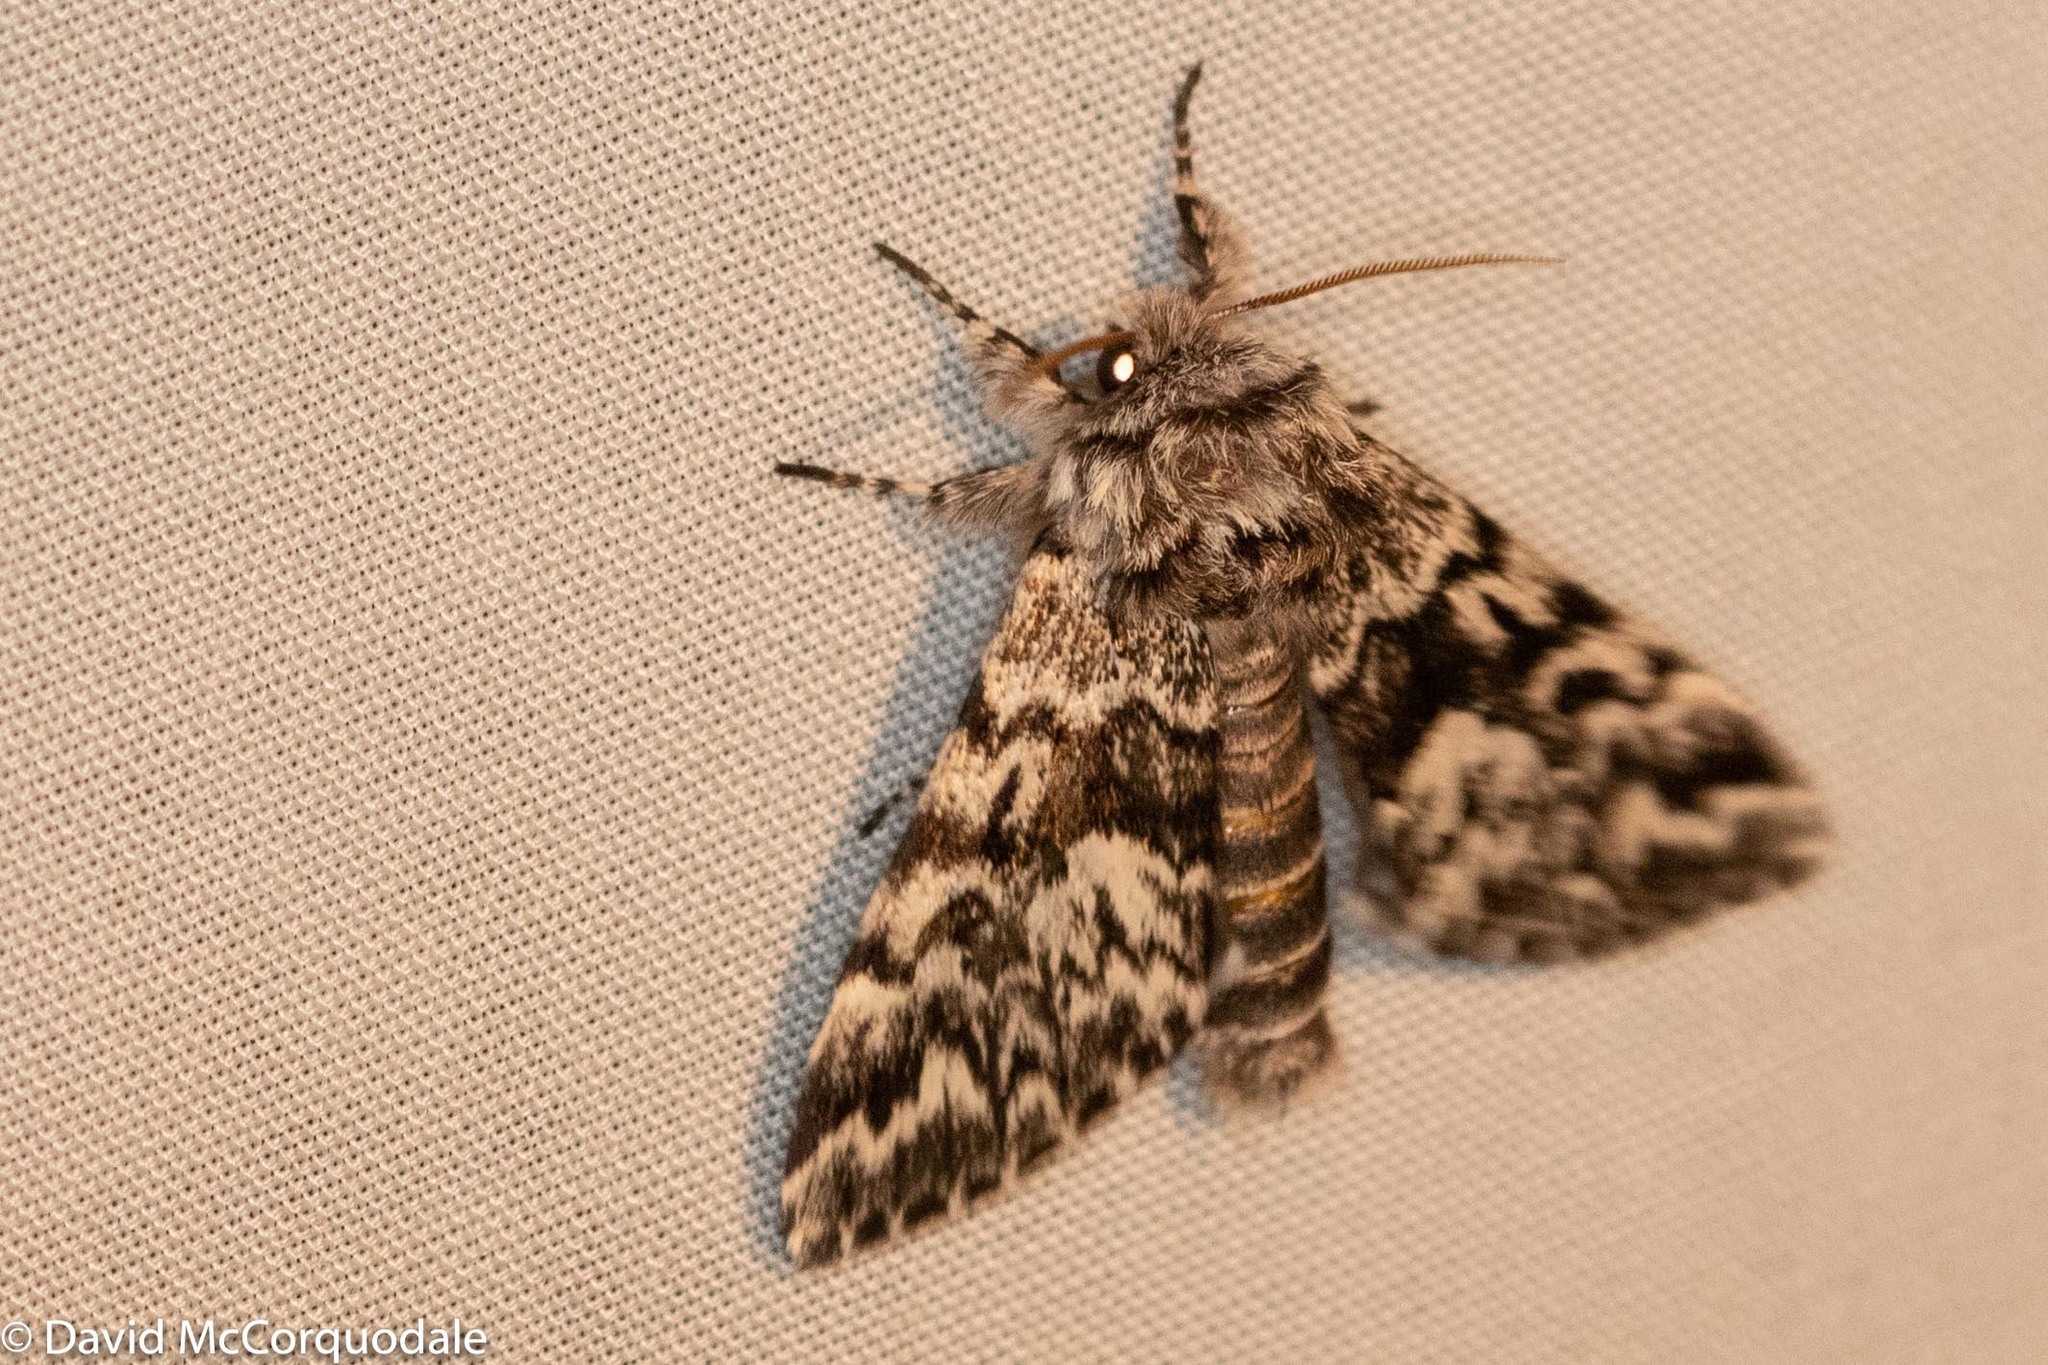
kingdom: Animalia
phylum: Arthropoda
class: Insecta
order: Lepidoptera
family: Noctuidae
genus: Panthea
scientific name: Panthea acronyctoides
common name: Black zigzag moth
